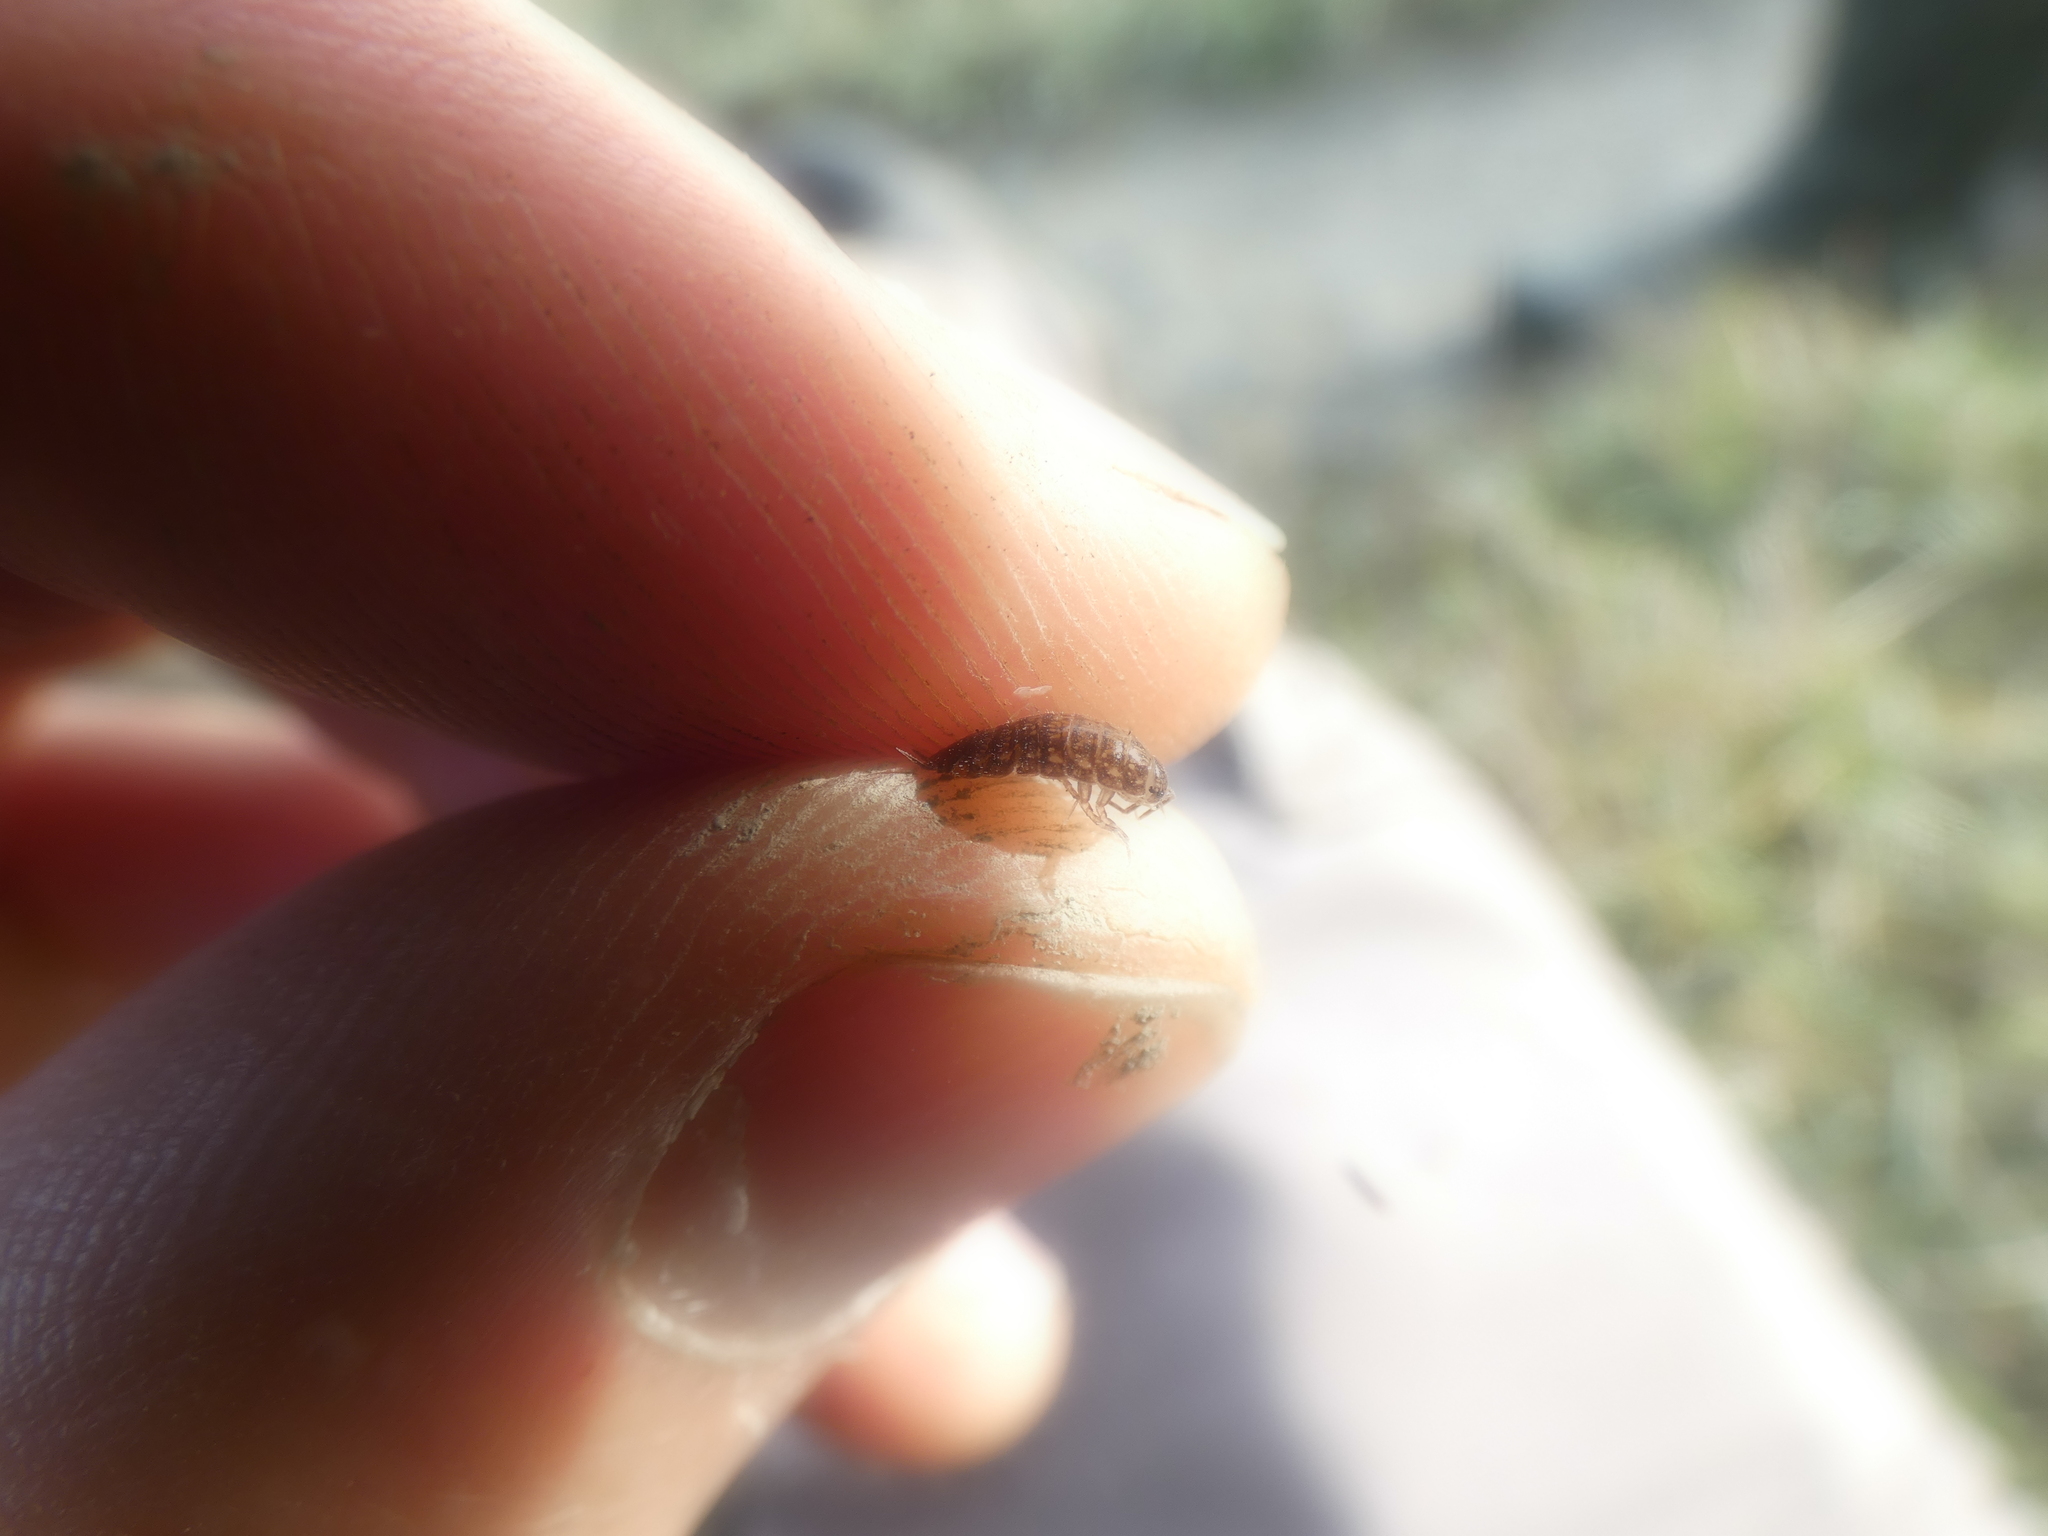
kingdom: Animalia
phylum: Arthropoda
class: Malacostraca
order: Isopoda
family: Philosciidae
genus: Chaetophiloscia
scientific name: Chaetophiloscia cellaria
